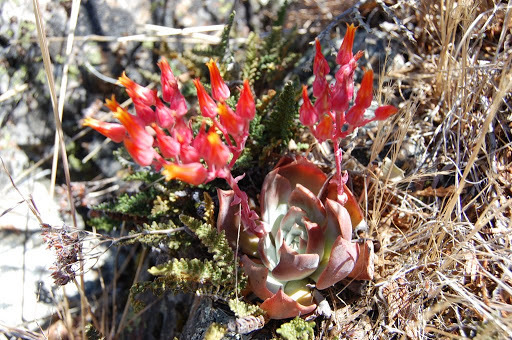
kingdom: Plantae
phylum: Tracheophyta
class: Magnoliopsida
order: Saxifragales
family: Crassulaceae
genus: Dudleya
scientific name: Dudleya cymosa
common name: Canyon dudleya
